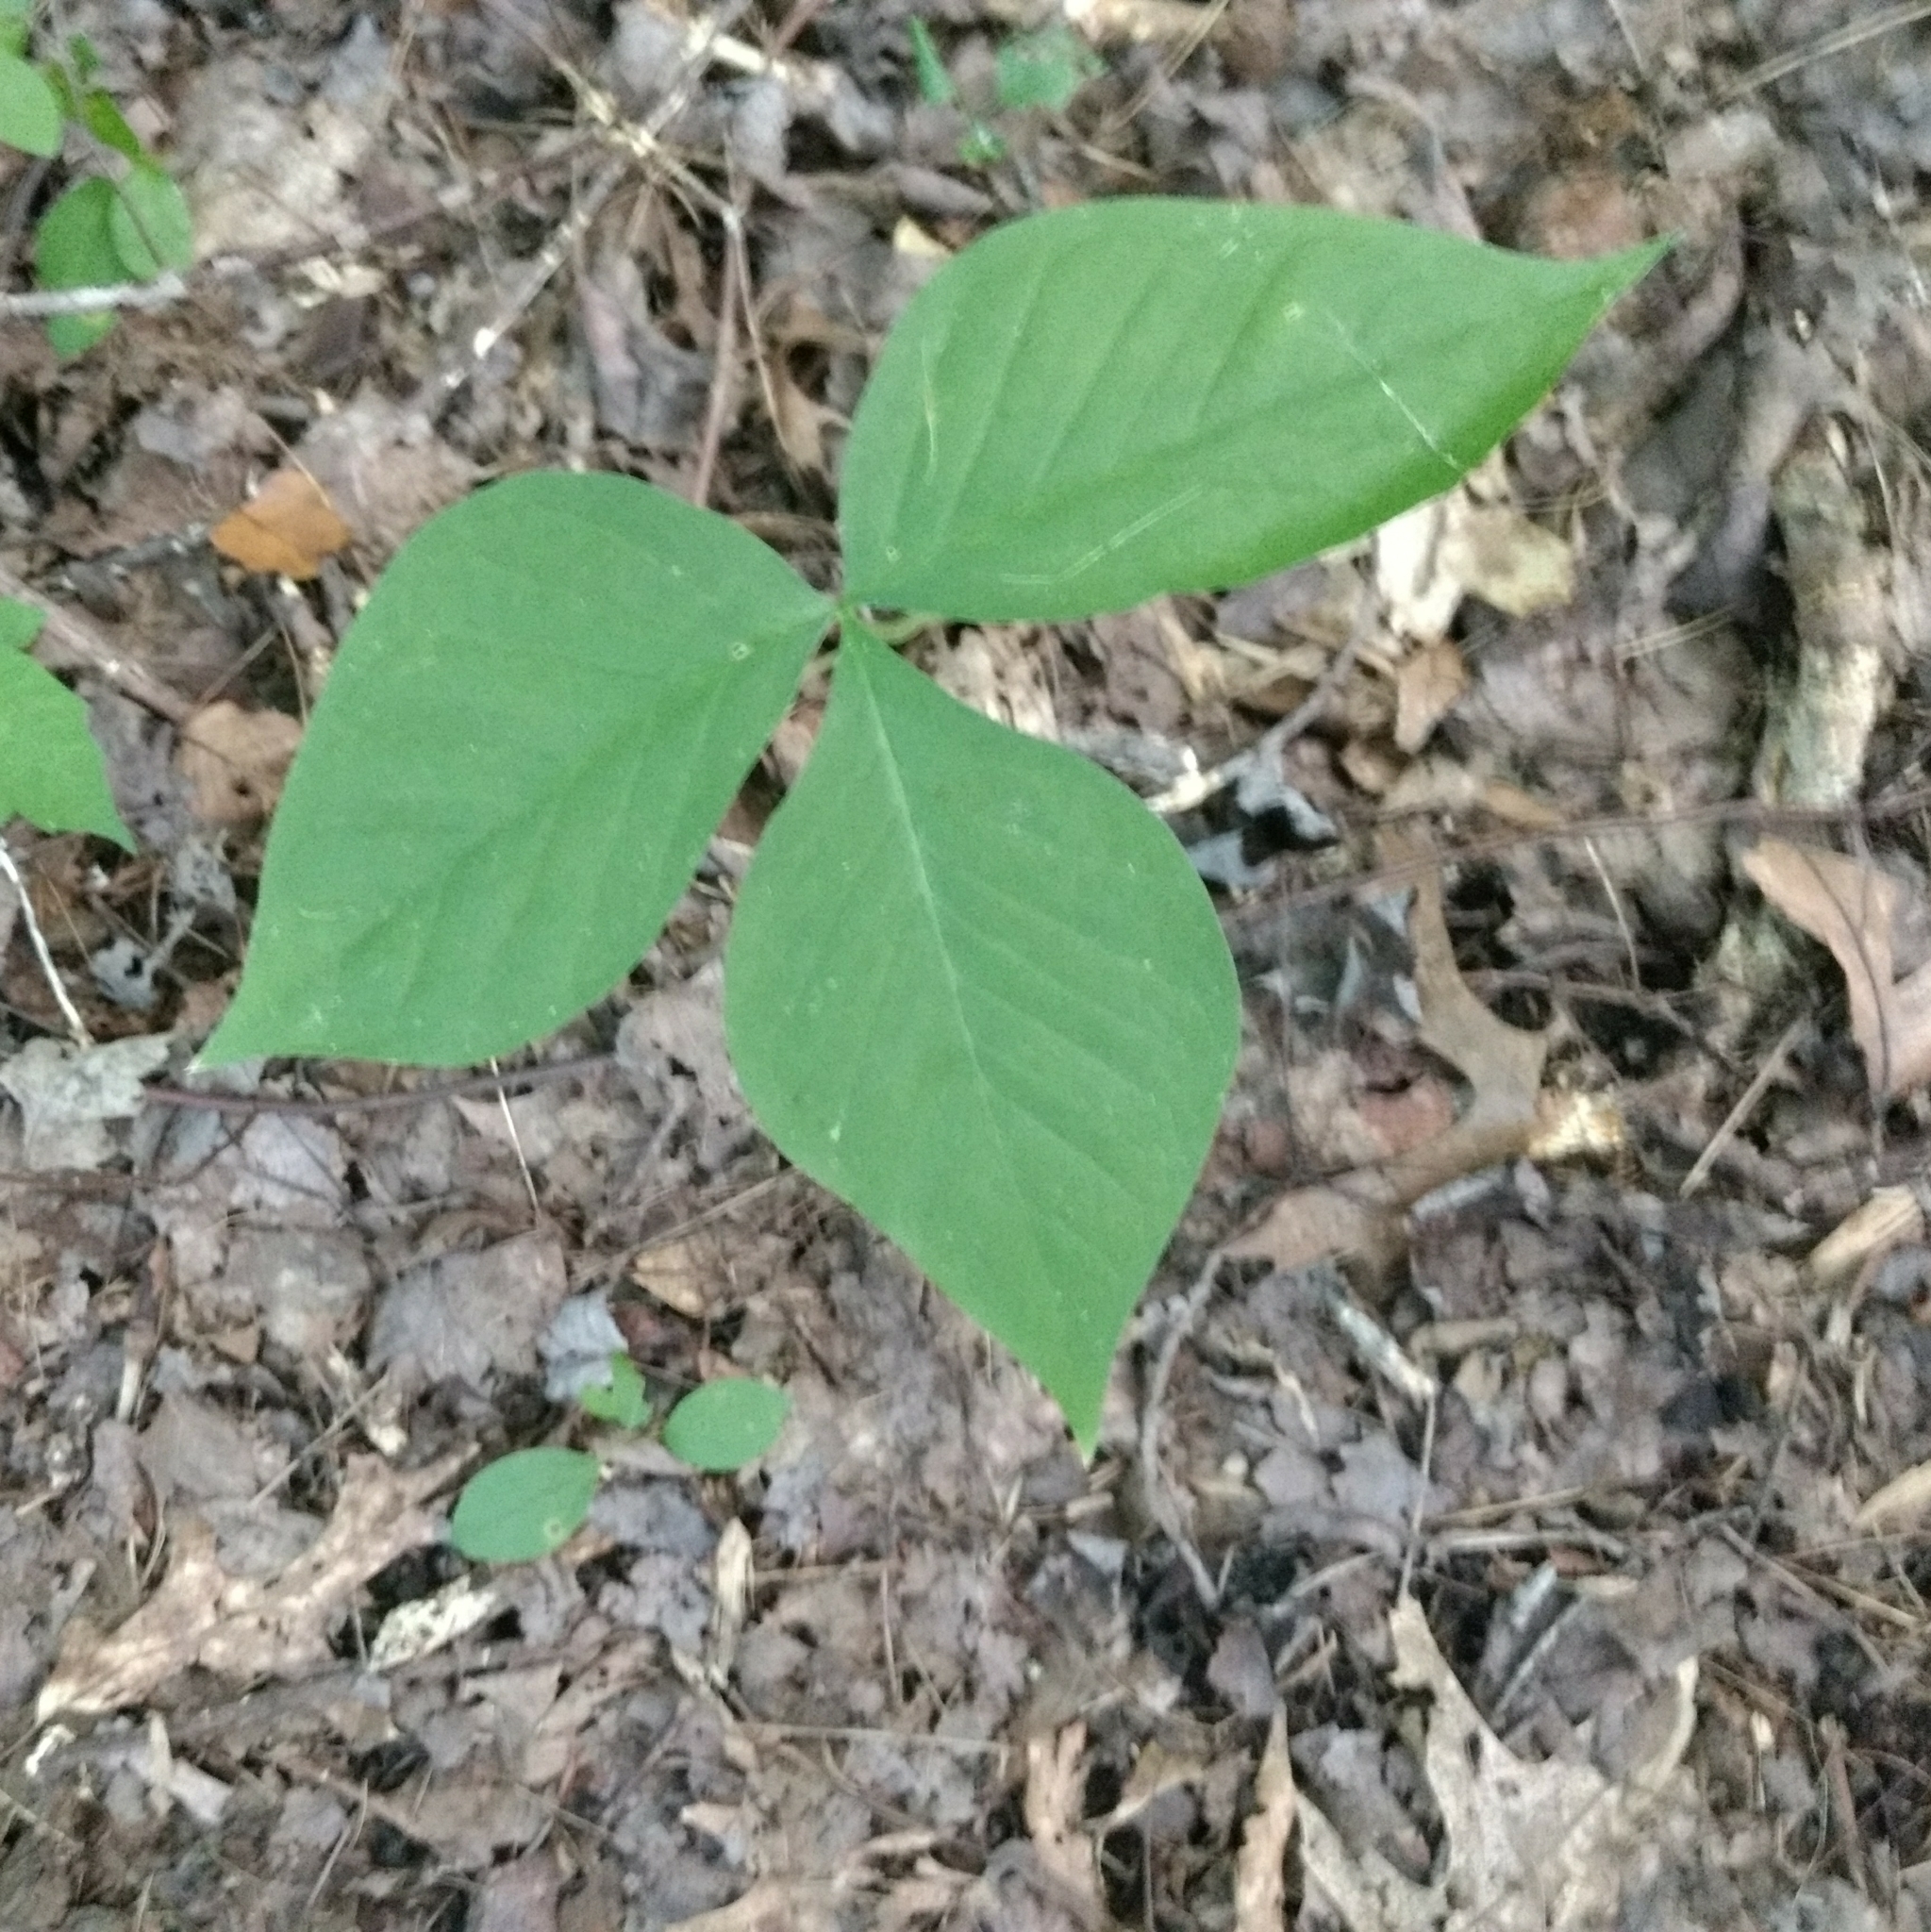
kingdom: Plantae
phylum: Tracheophyta
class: Liliopsida
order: Alismatales
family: Araceae
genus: Arisaema
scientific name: Arisaema triphyllum
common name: Jack-in-the-pulpit
